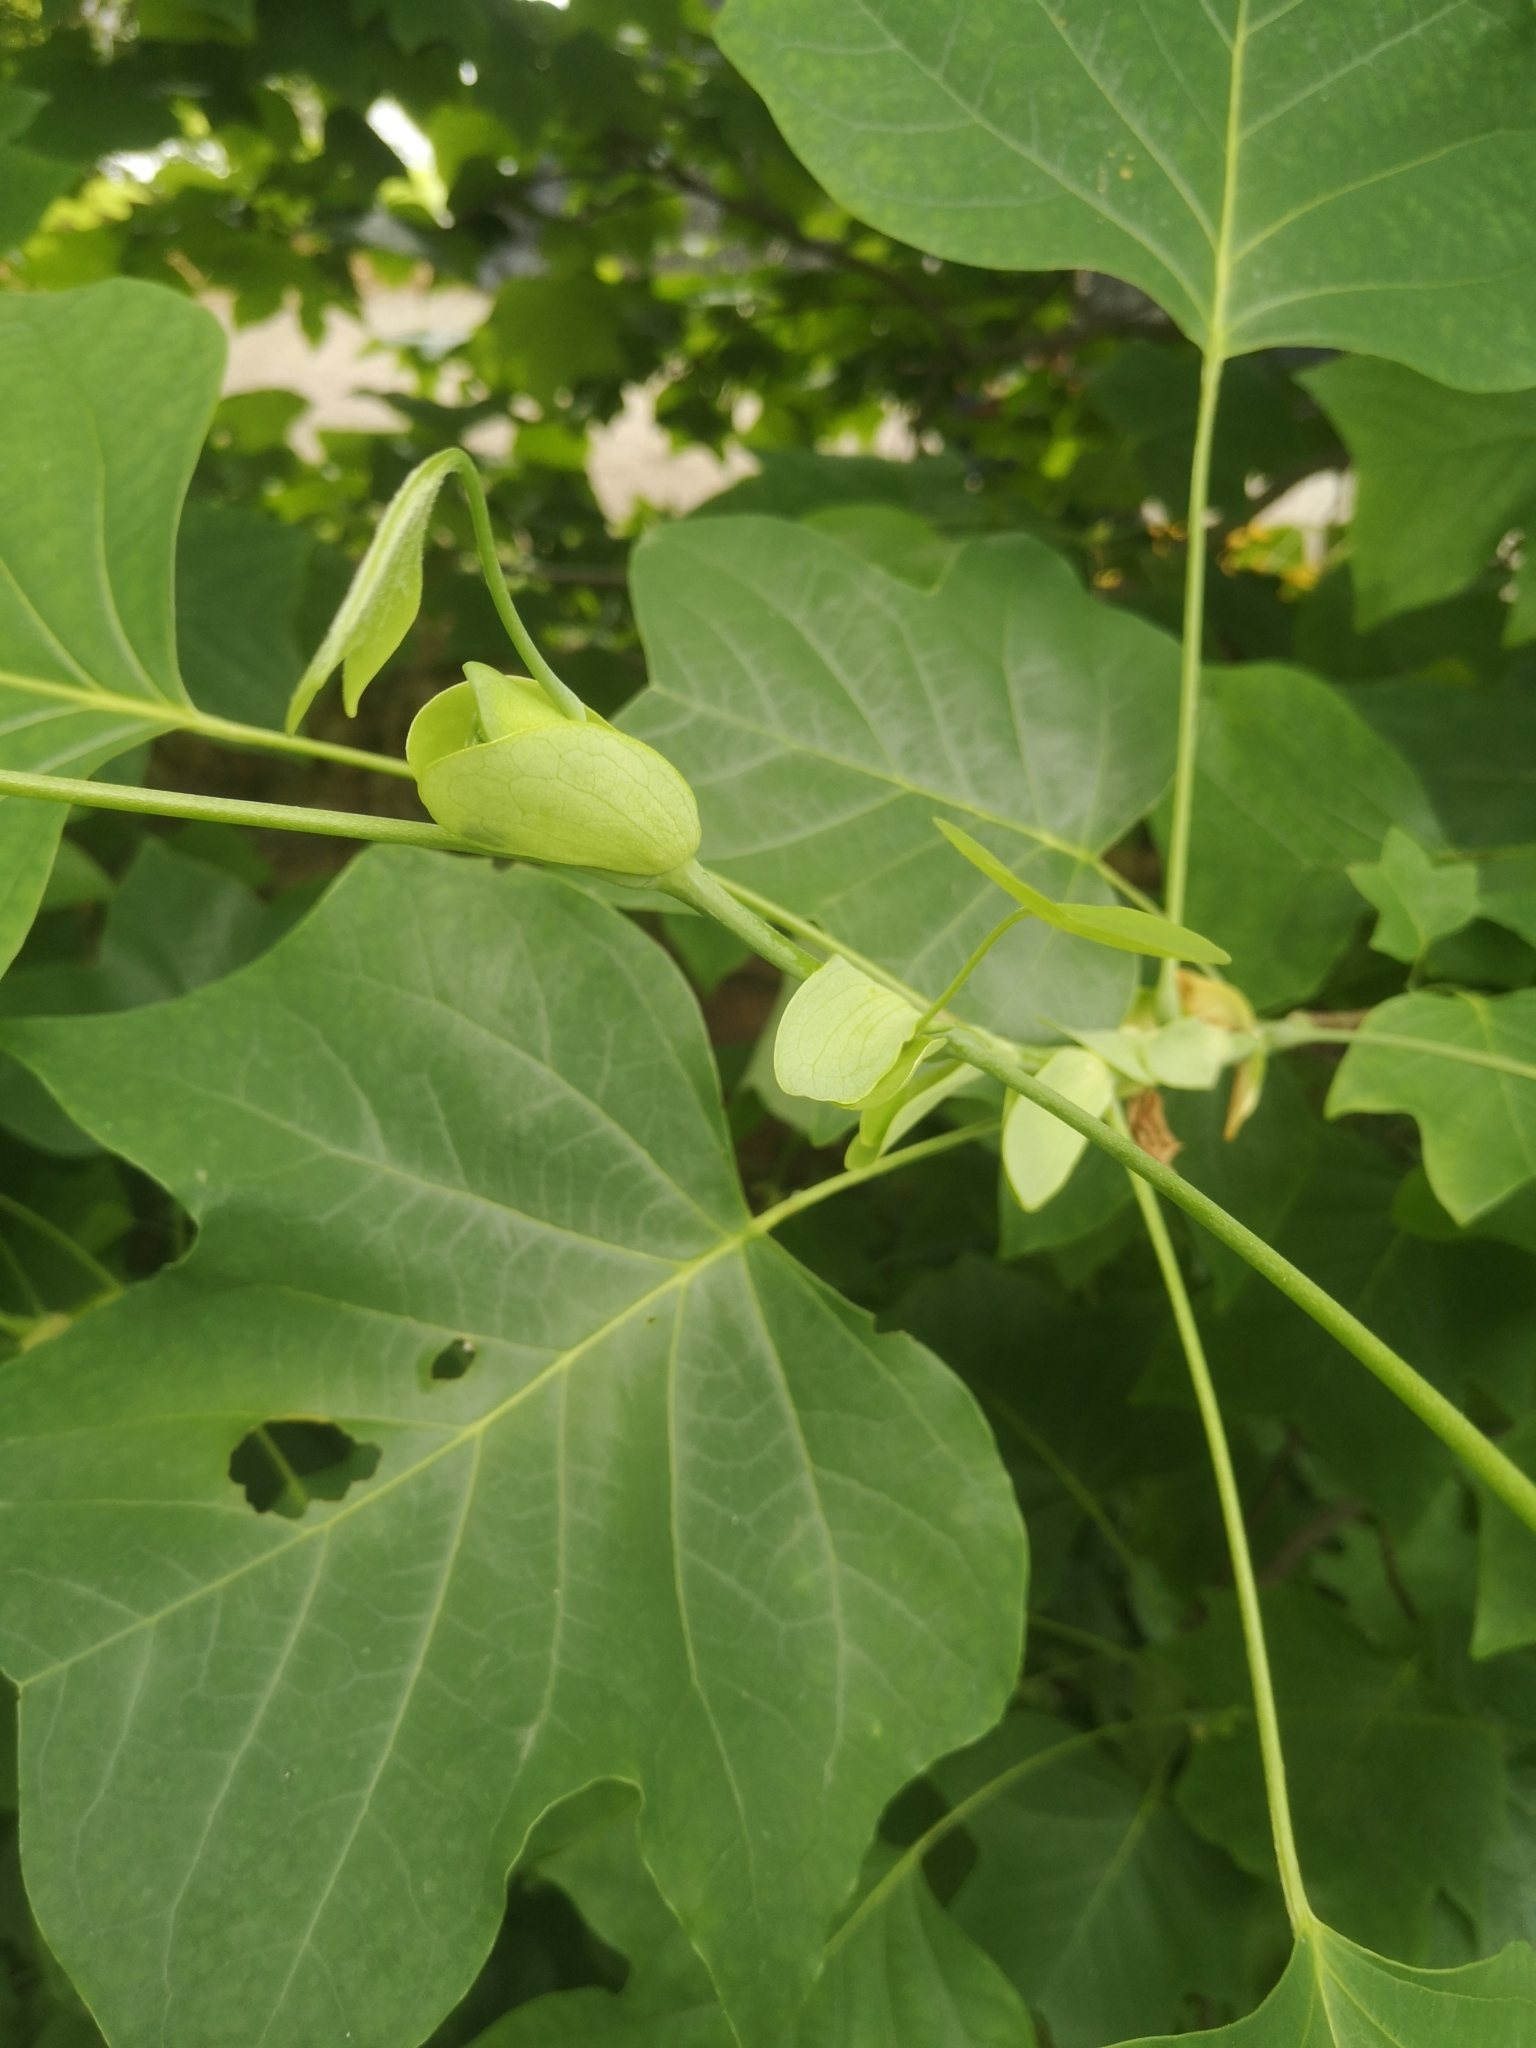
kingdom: Plantae
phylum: Tracheophyta
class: Magnoliopsida
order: Magnoliales
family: Magnoliaceae
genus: Liriodendron
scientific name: Liriodendron tulipifera
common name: Tulip tree
